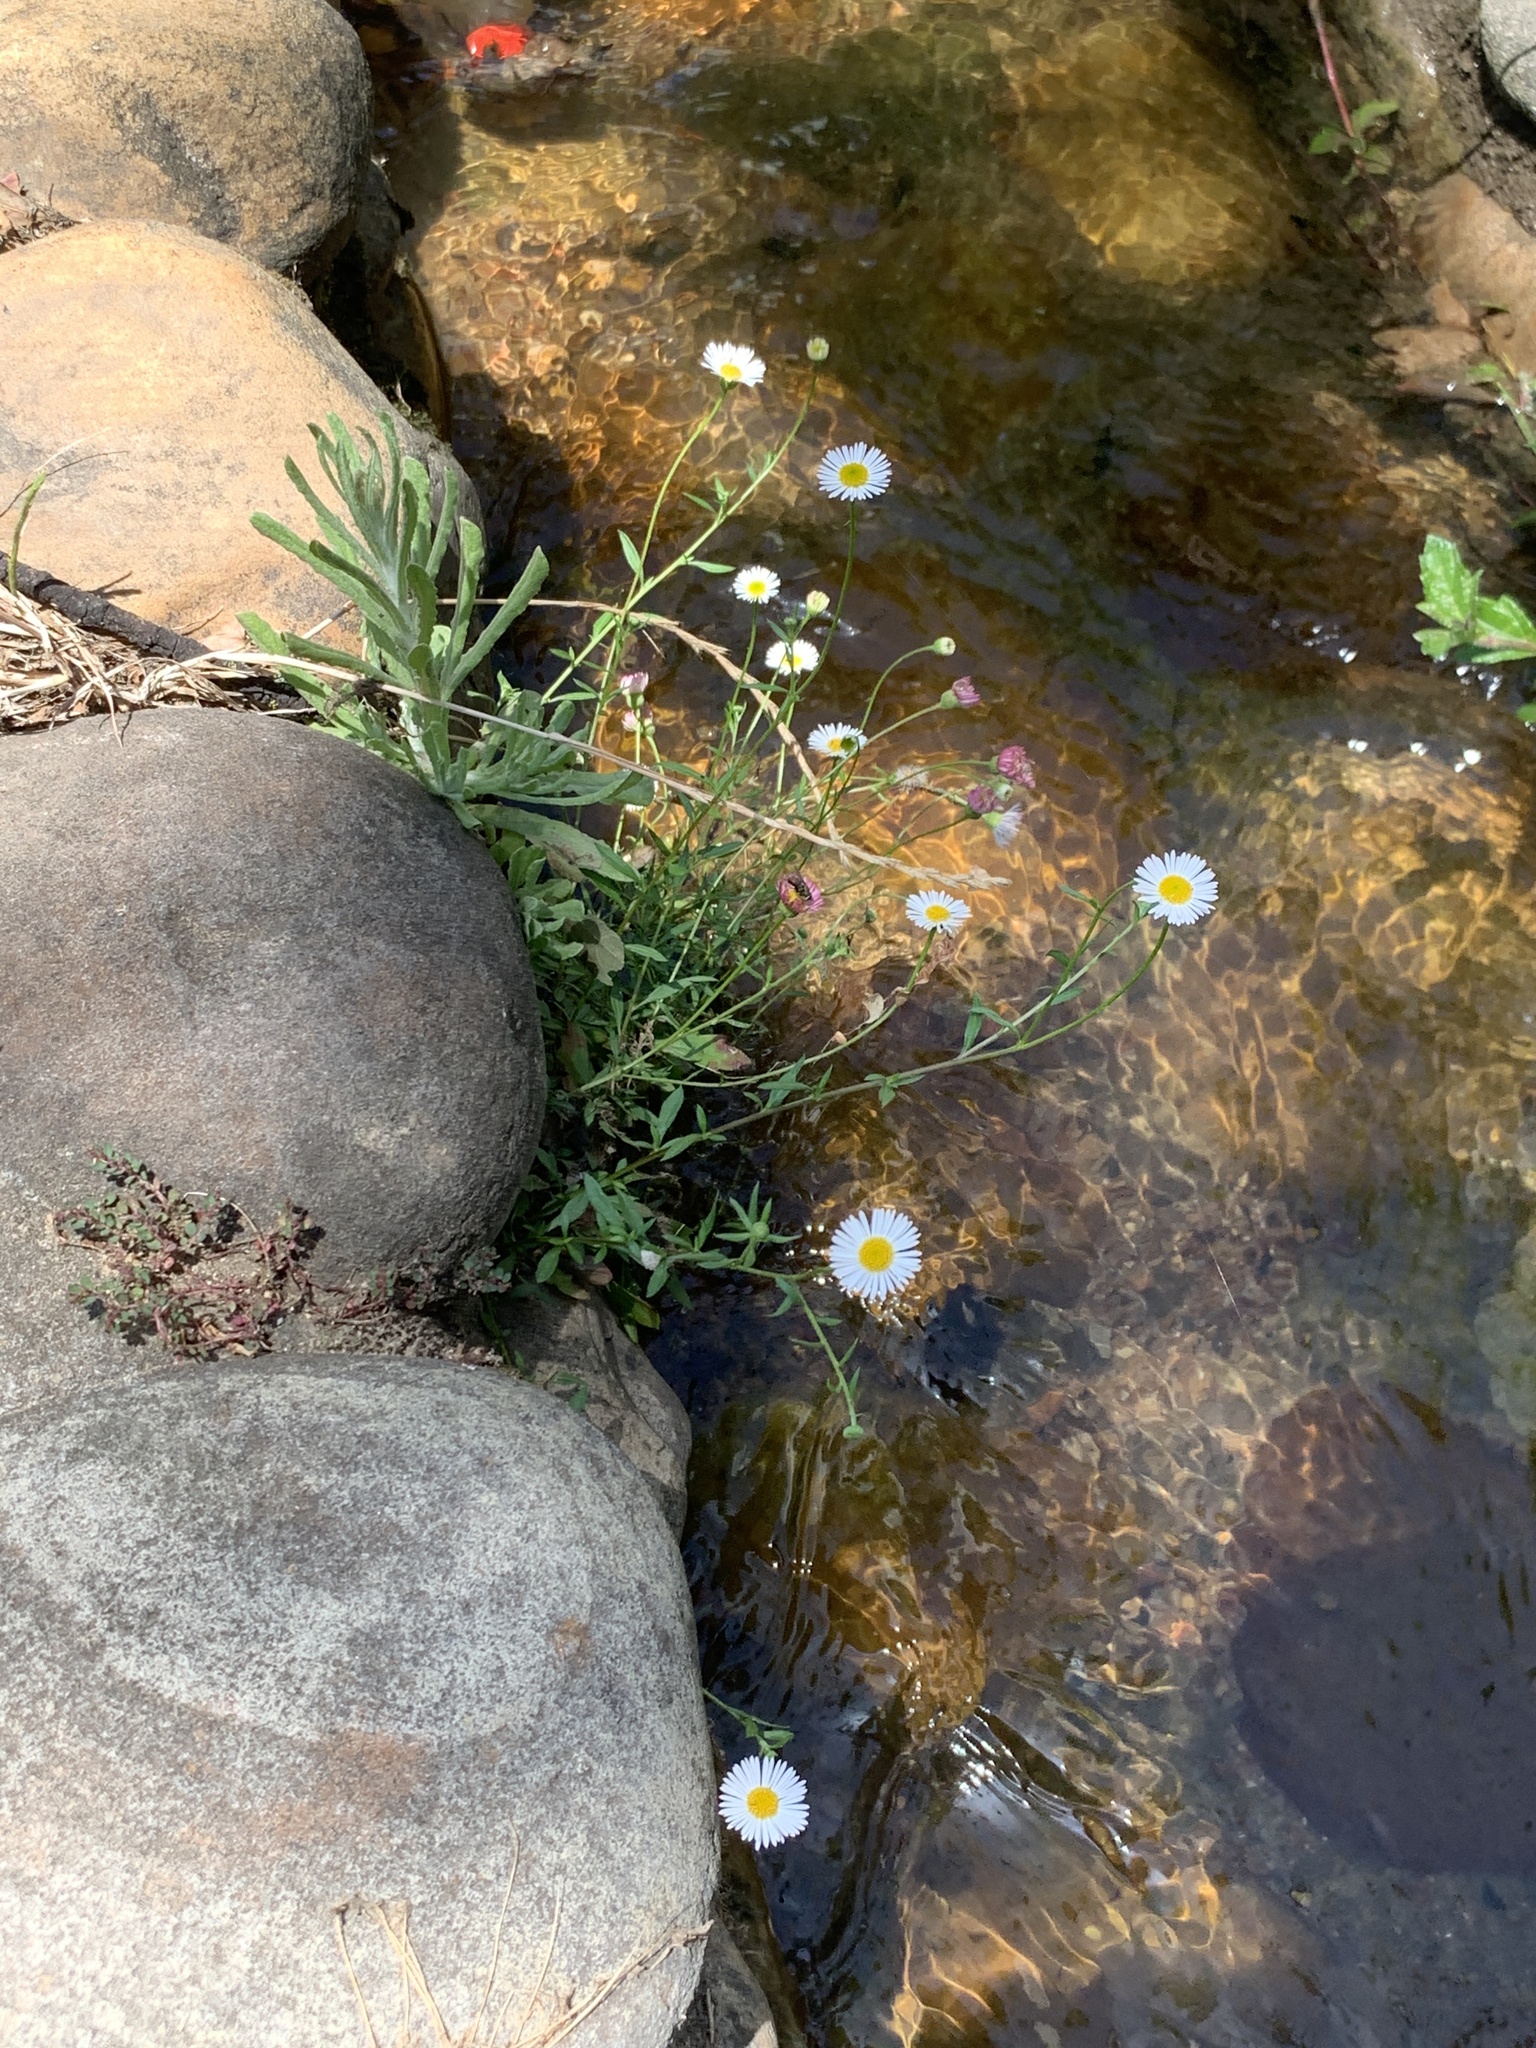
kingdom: Plantae
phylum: Tracheophyta
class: Magnoliopsida
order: Asterales
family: Asteraceae
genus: Erigeron
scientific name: Erigeron karvinskianus
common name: Mexican fleabane
